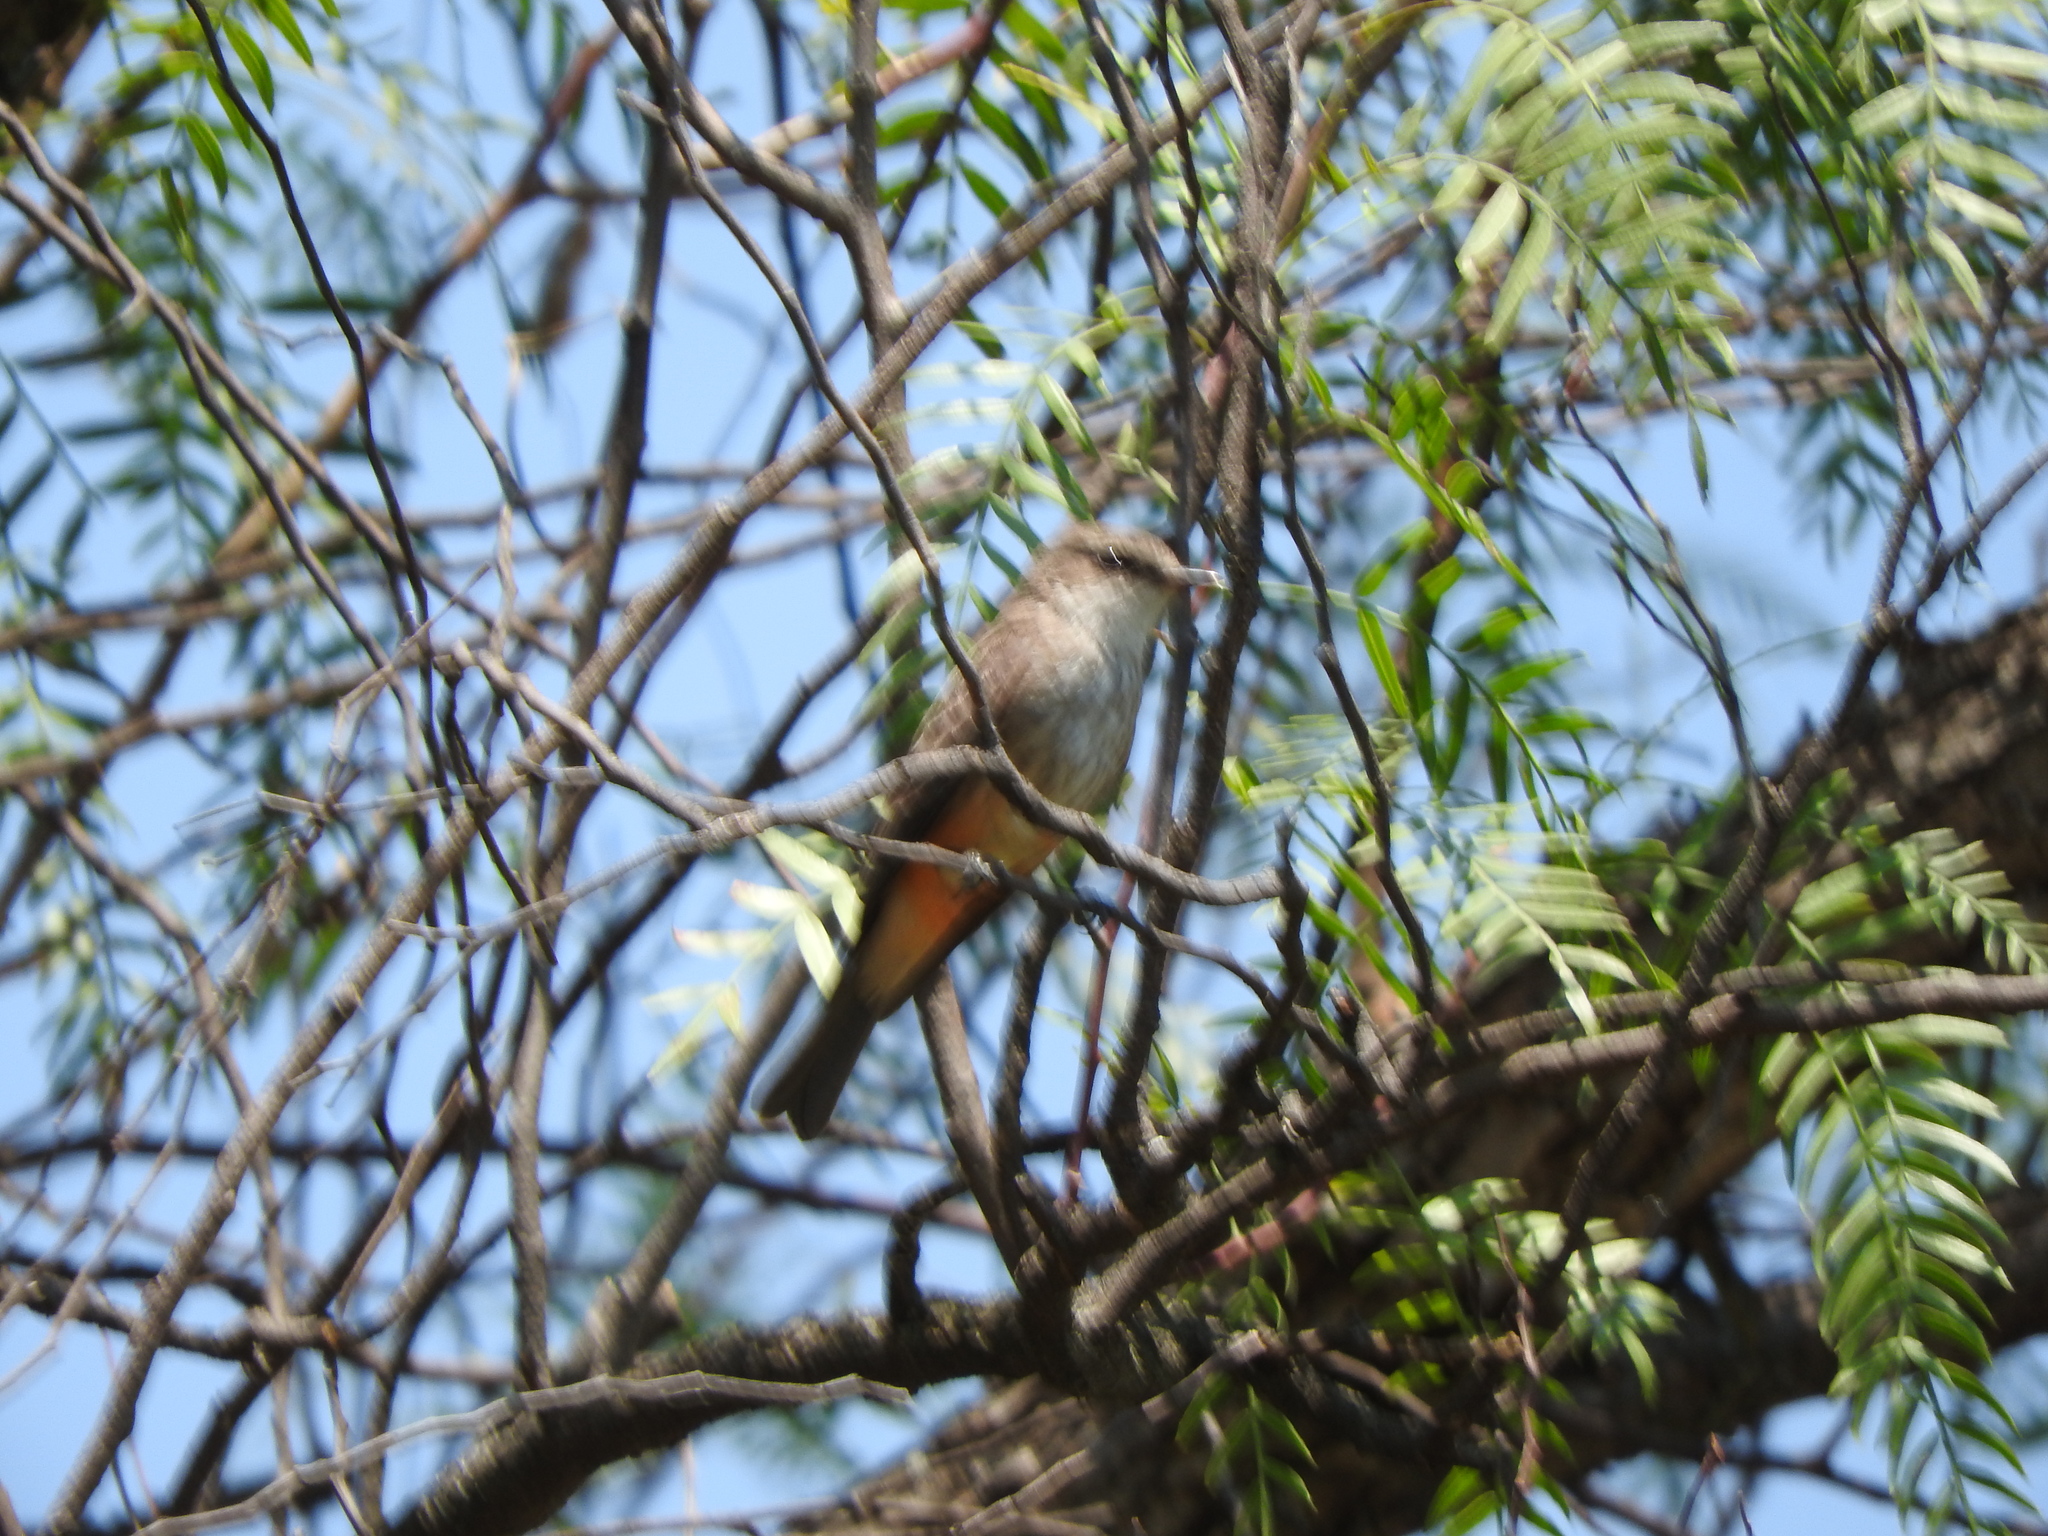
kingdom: Animalia
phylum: Chordata
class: Aves
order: Passeriformes
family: Tyrannidae
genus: Pyrocephalus
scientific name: Pyrocephalus rubinus
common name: Vermilion flycatcher
